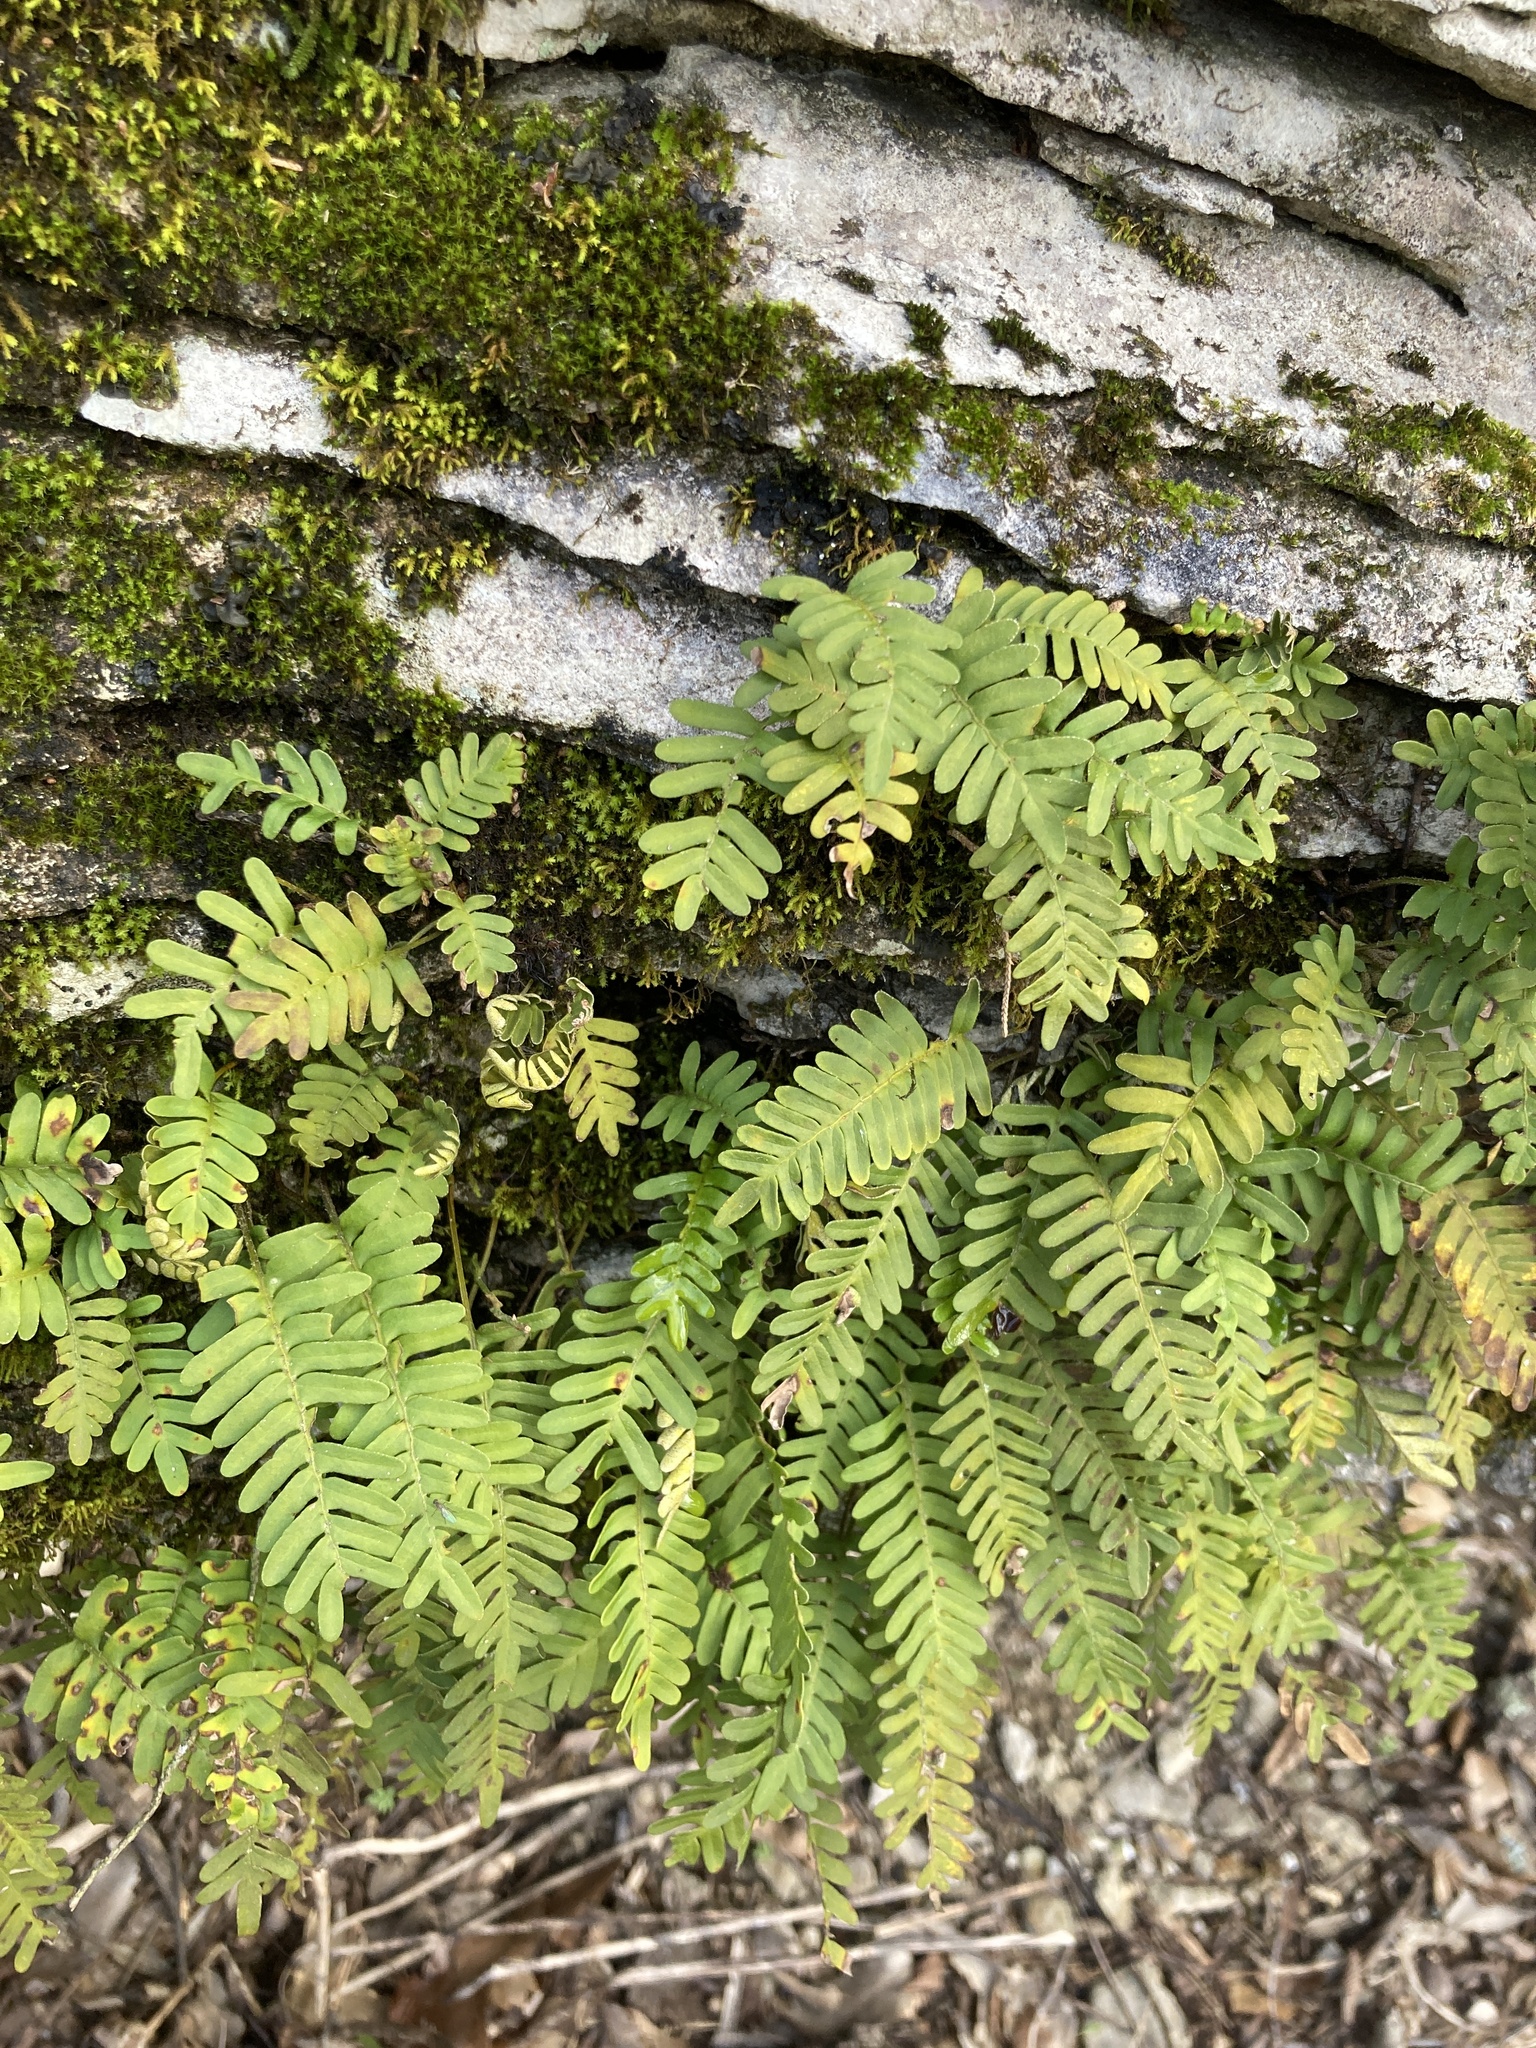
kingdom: Plantae
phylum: Tracheophyta
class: Polypodiopsida
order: Polypodiales
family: Polypodiaceae
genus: Pleopeltis
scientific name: Pleopeltis michauxiana
